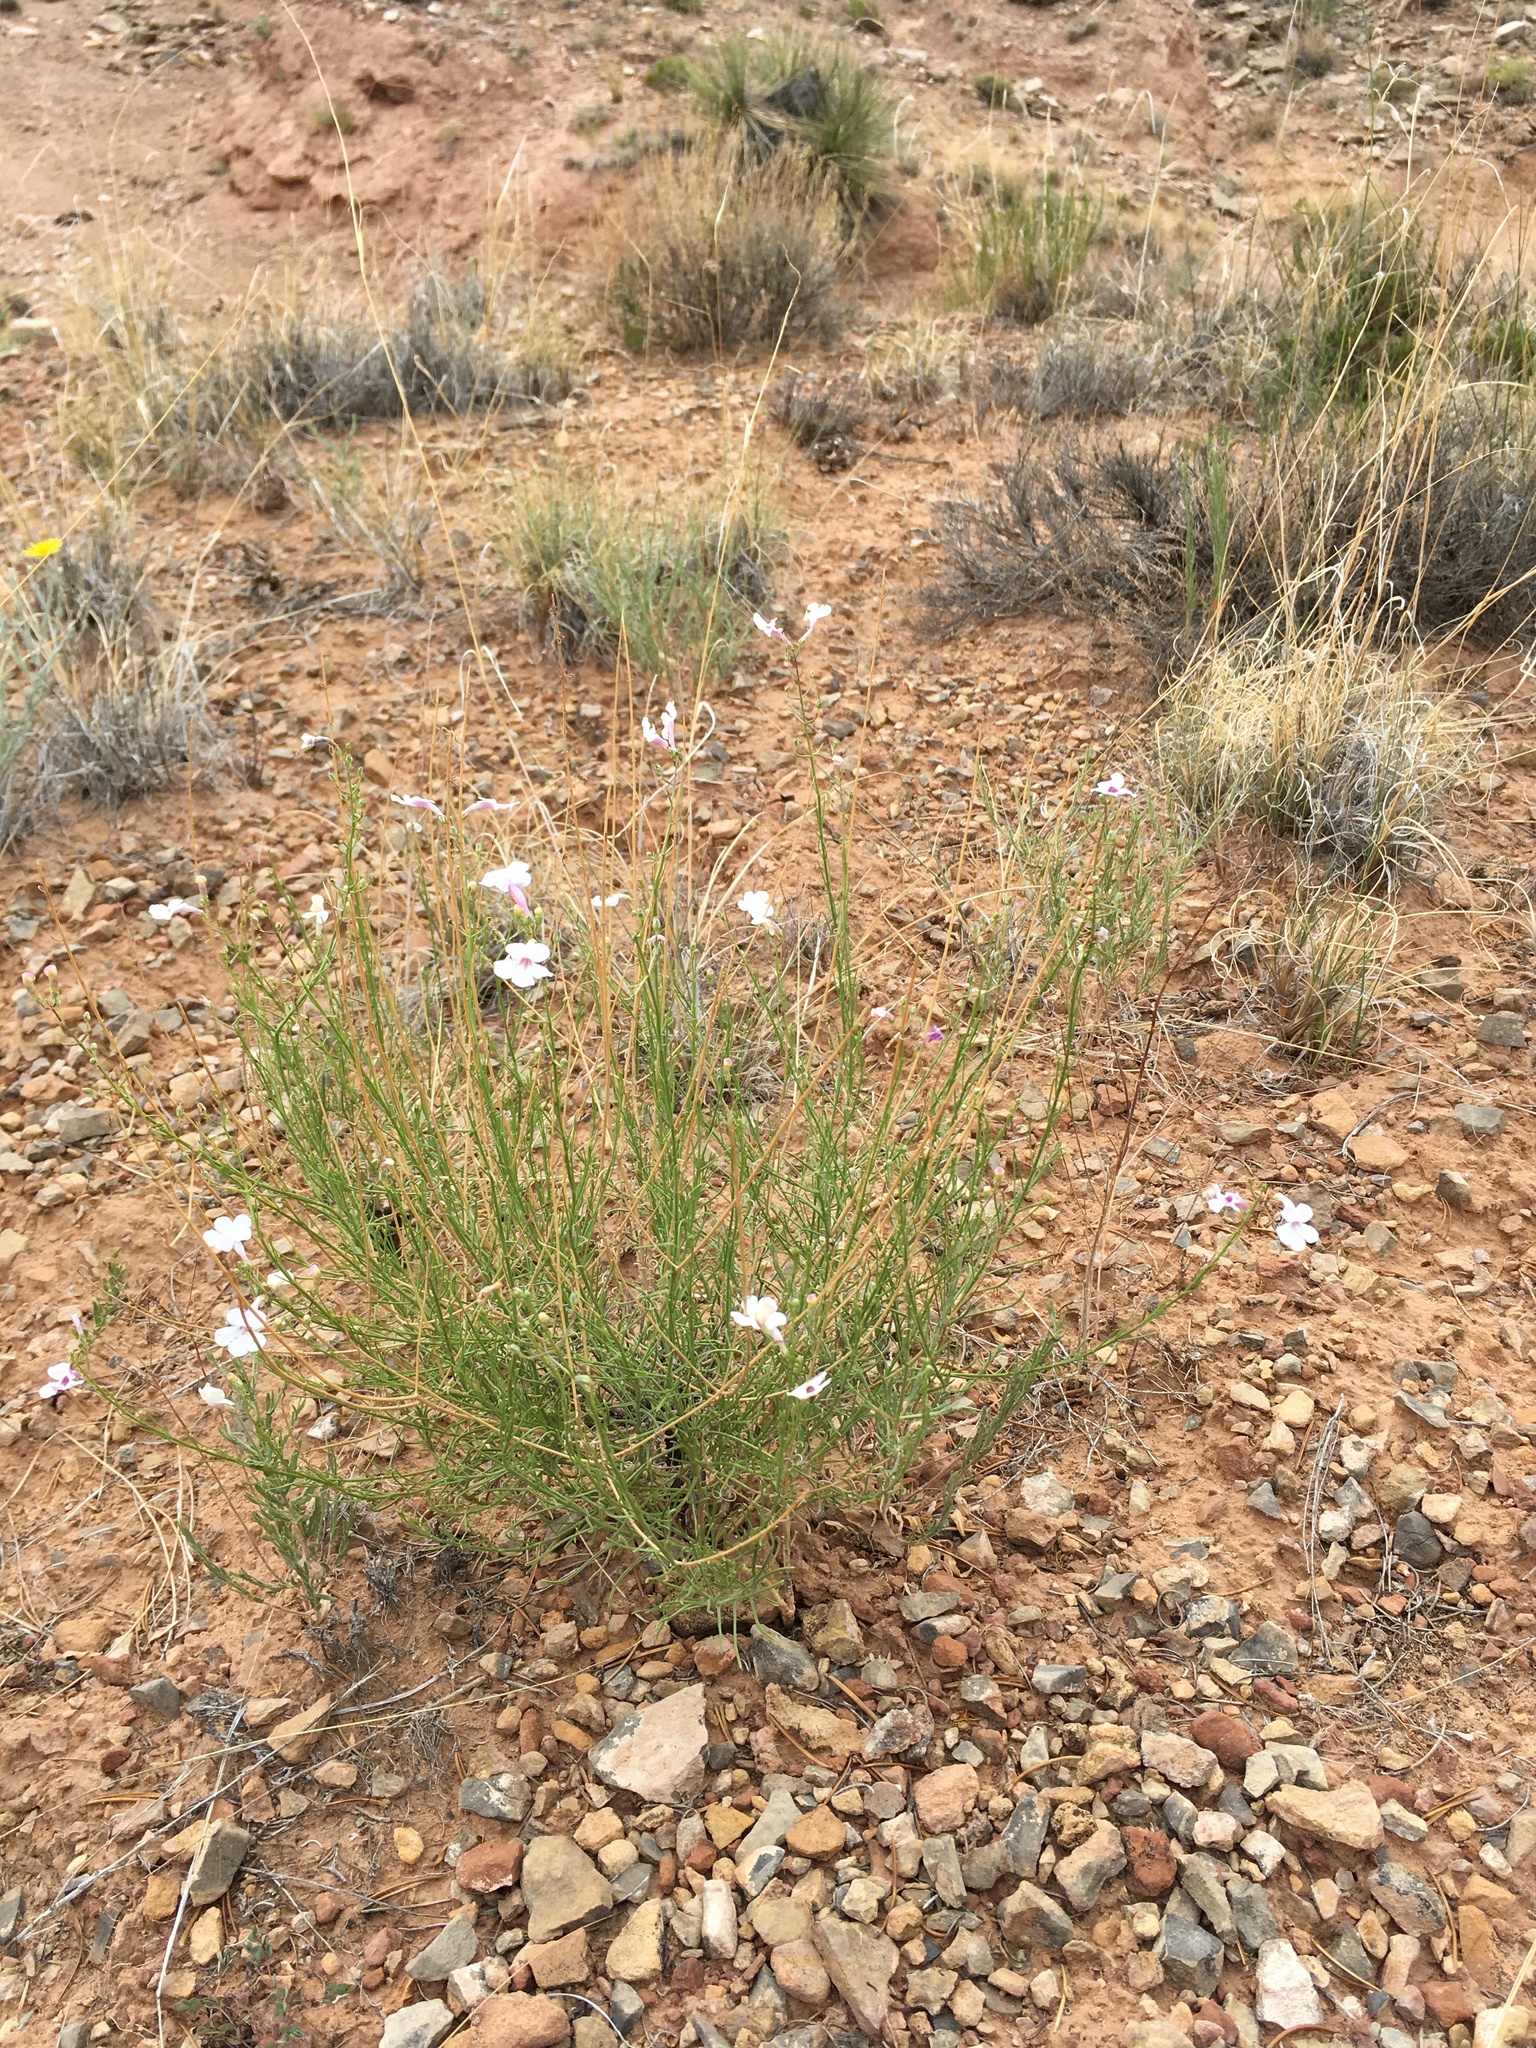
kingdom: Plantae
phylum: Tracheophyta
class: Magnoliopsida
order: Lamiales
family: Plantaginaceae
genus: Penstemon
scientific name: Penstemon ambiguus
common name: Bush penstemon
